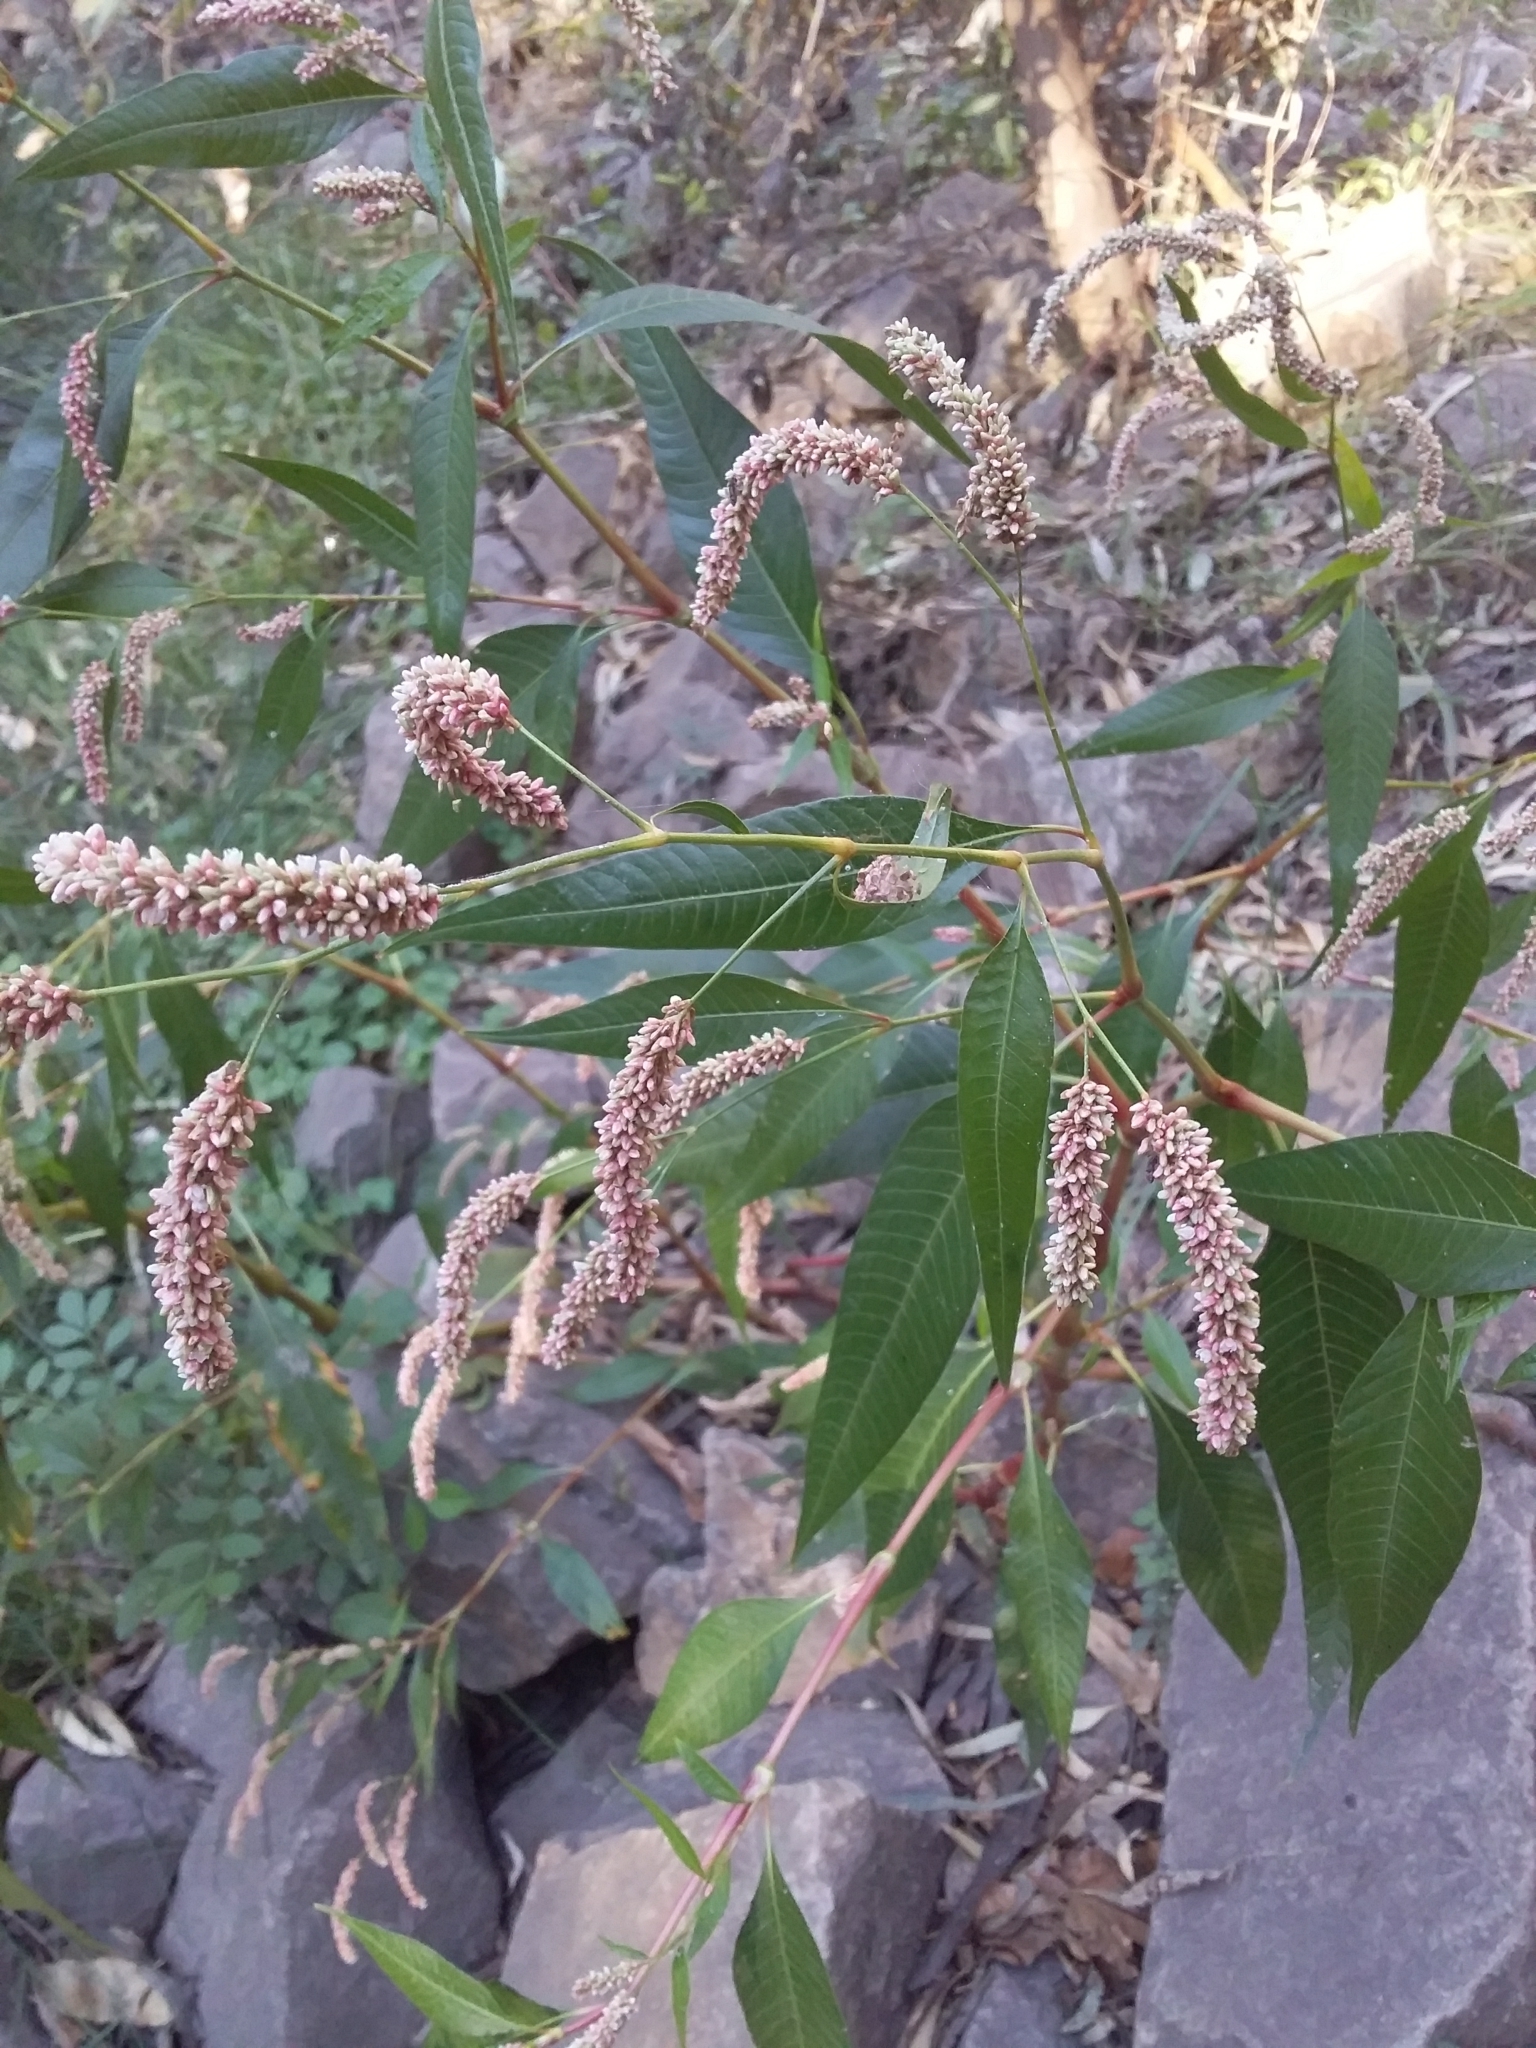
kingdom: Plantae
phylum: Tracheophyta
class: Magnoliopsida
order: Caryophyllales
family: Polygonaceae
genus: Persicaria
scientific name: Persicaria lapathifolia
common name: Curlytop knotweed
